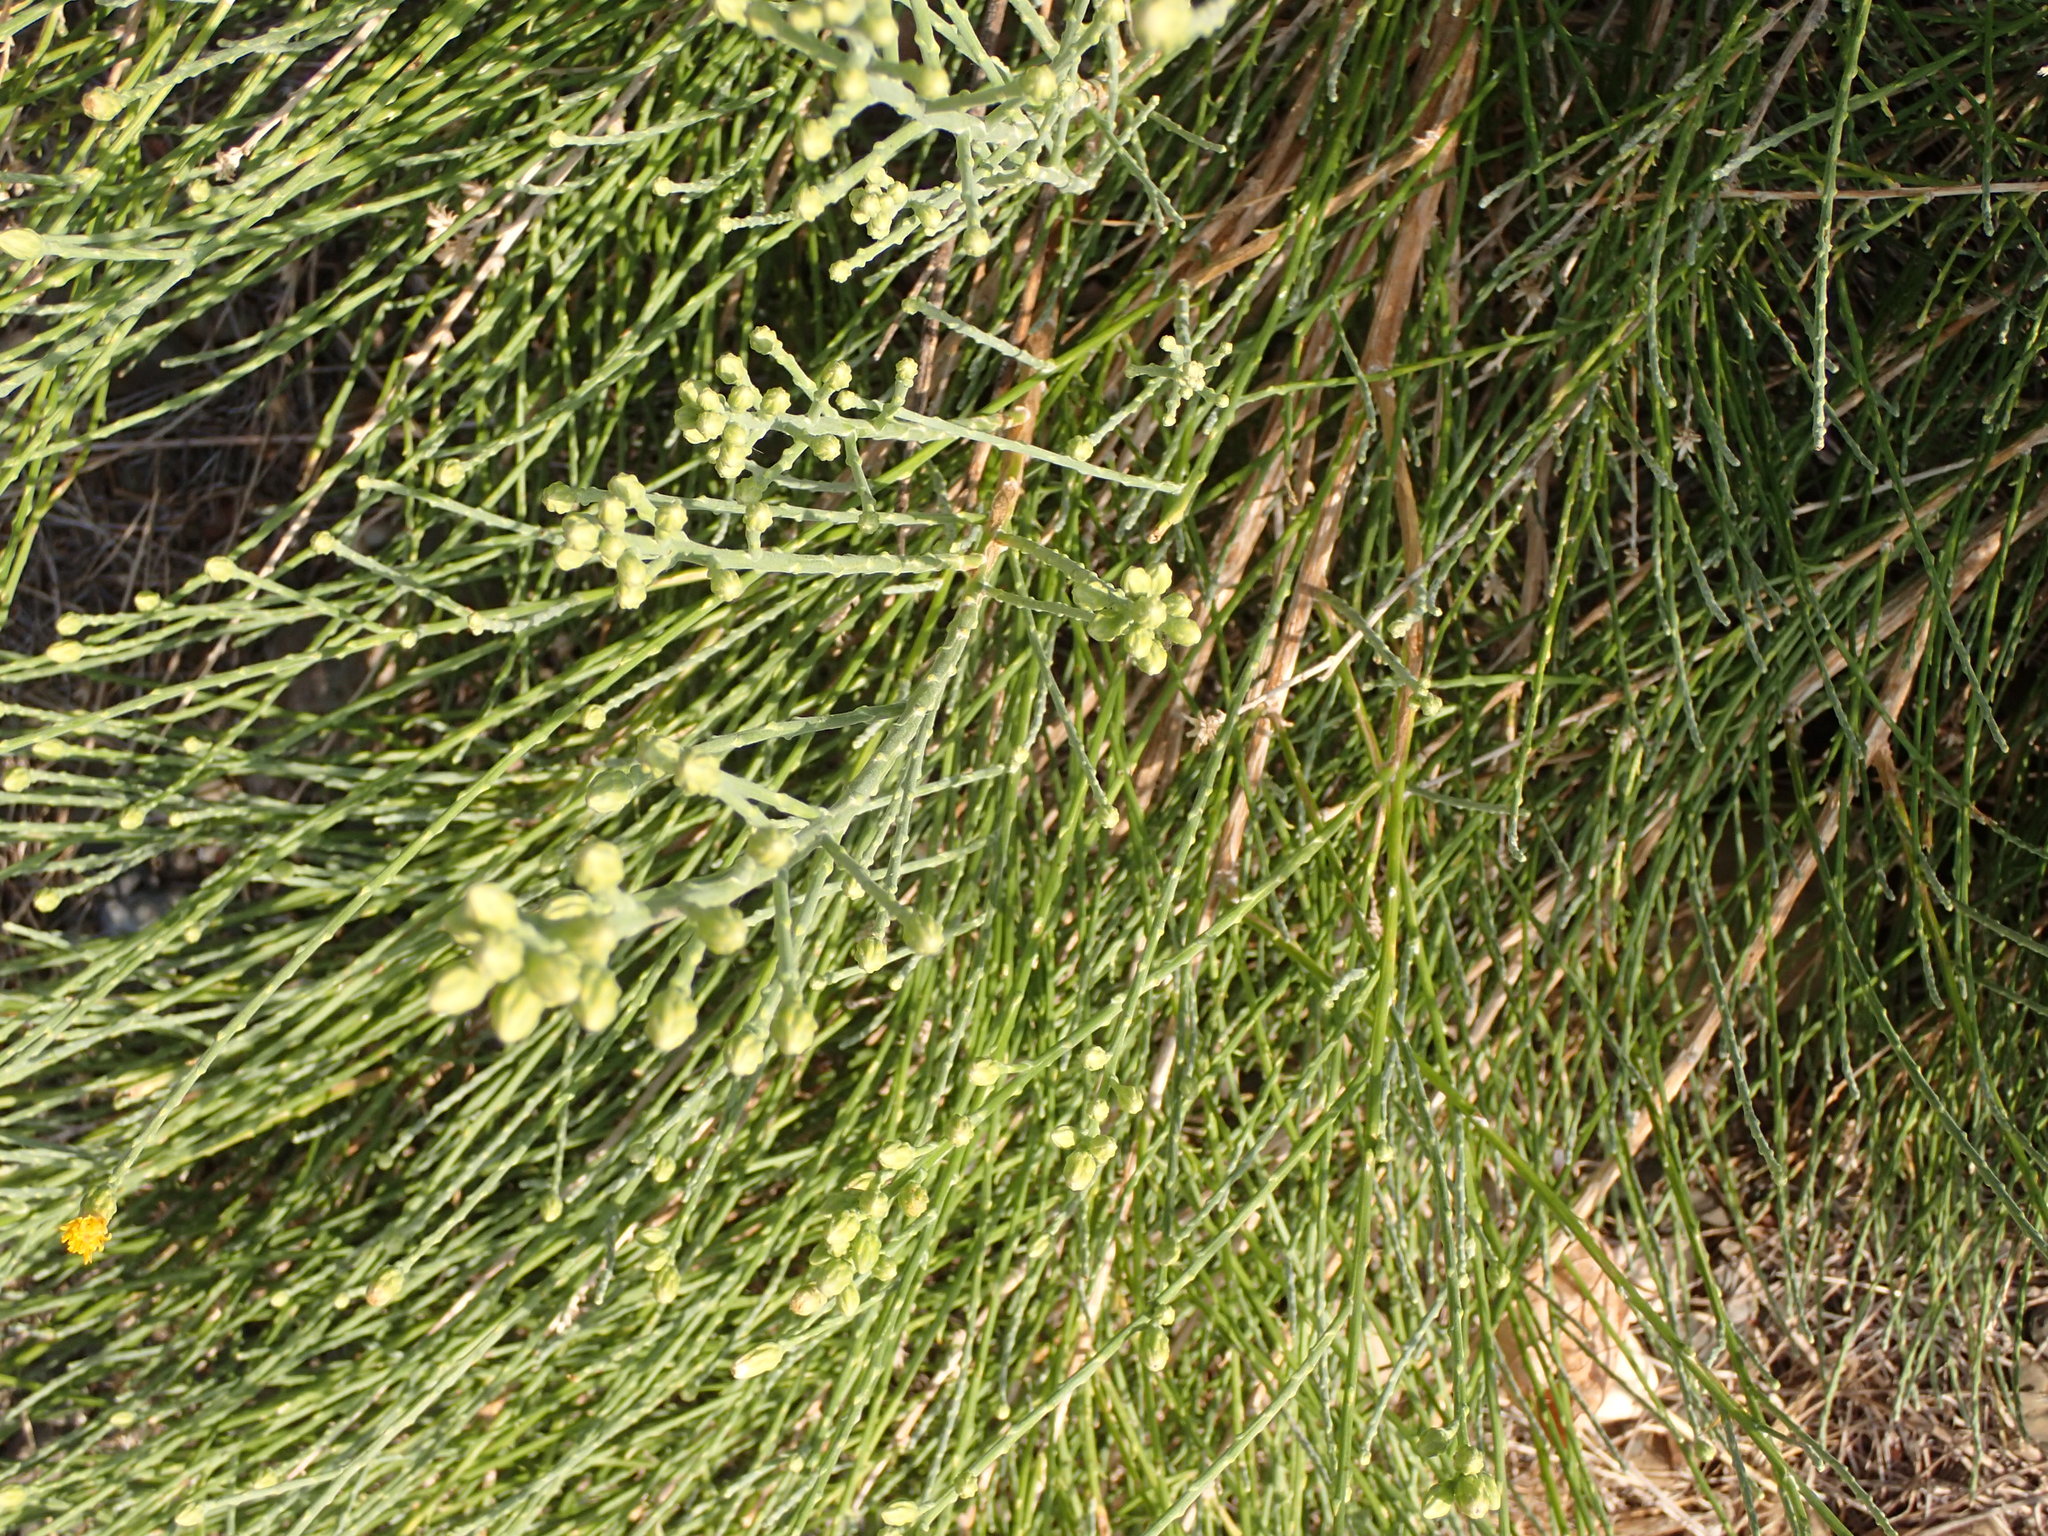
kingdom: Plantae
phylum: Tracheophyta
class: Magnoliopsida
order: Asterales
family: Asteraceae
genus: Lepidospartum
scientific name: Lepidospartum squamatum
